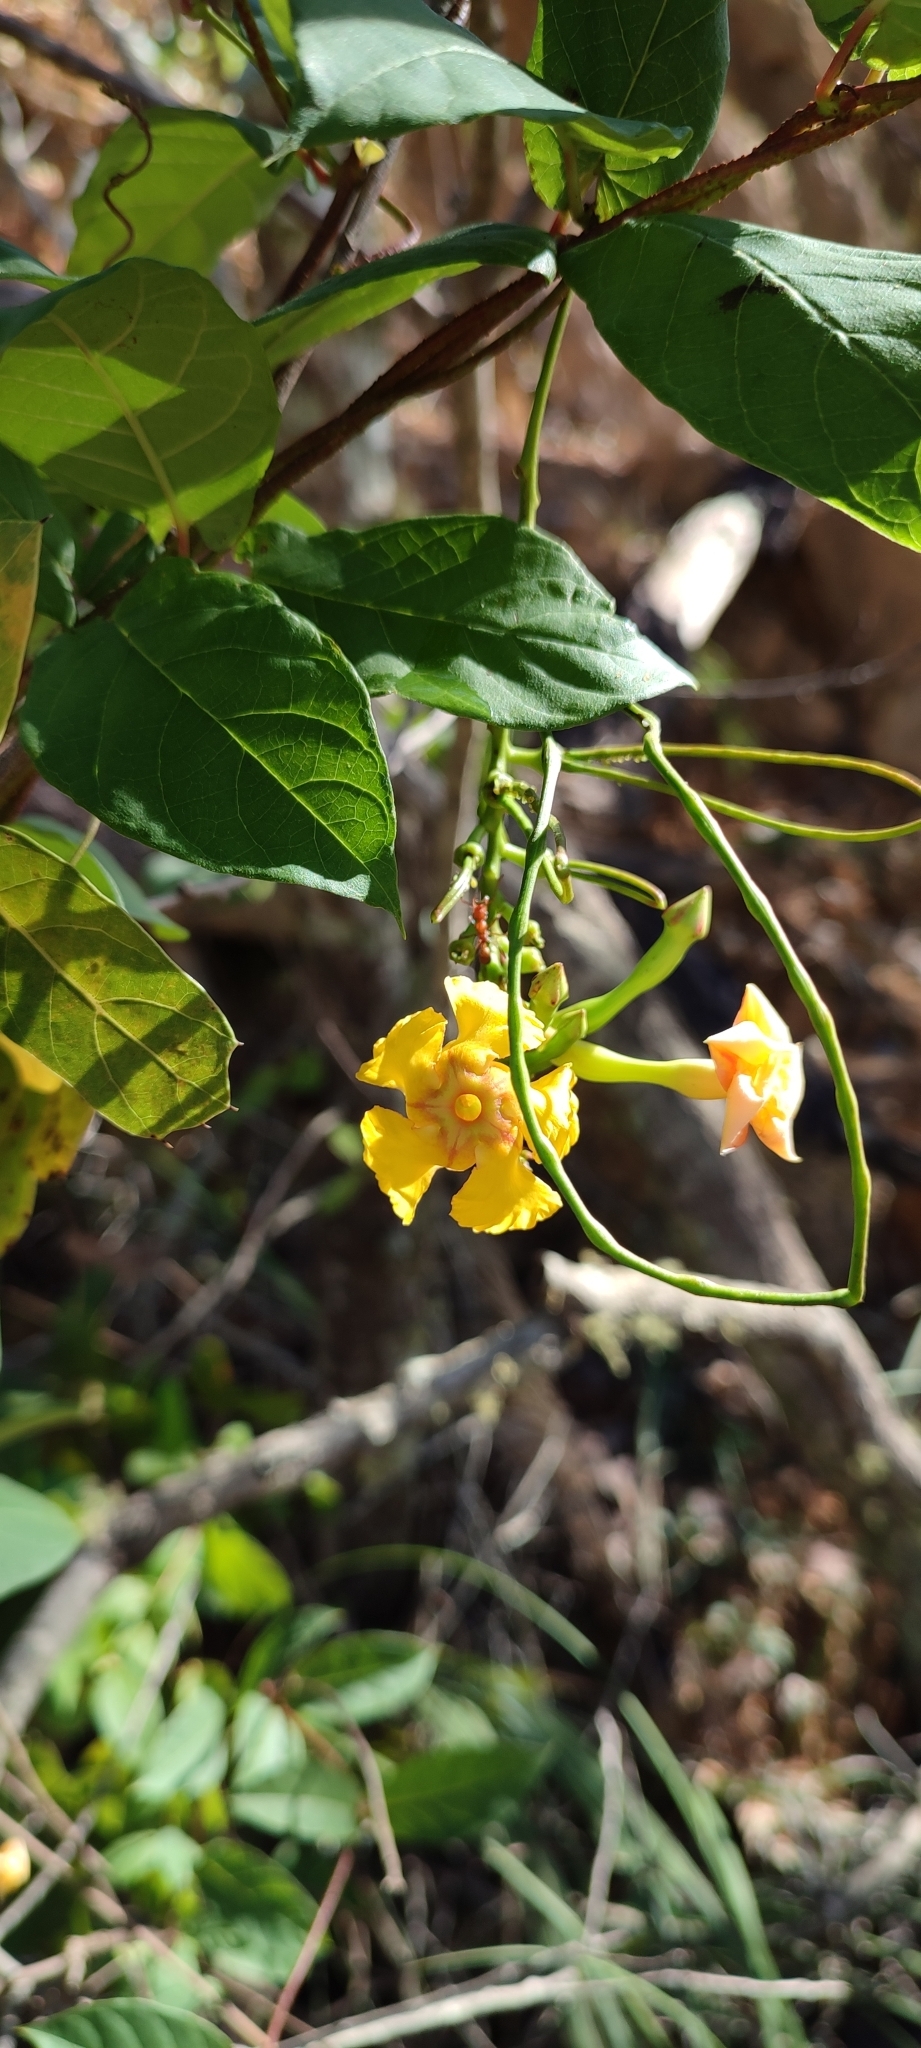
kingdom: Plantae
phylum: Tracheophyta
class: Magnoliopsida
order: Gentianales
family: Apocynaceae
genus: Mandevilla
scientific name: Mandevilla subsagittata
